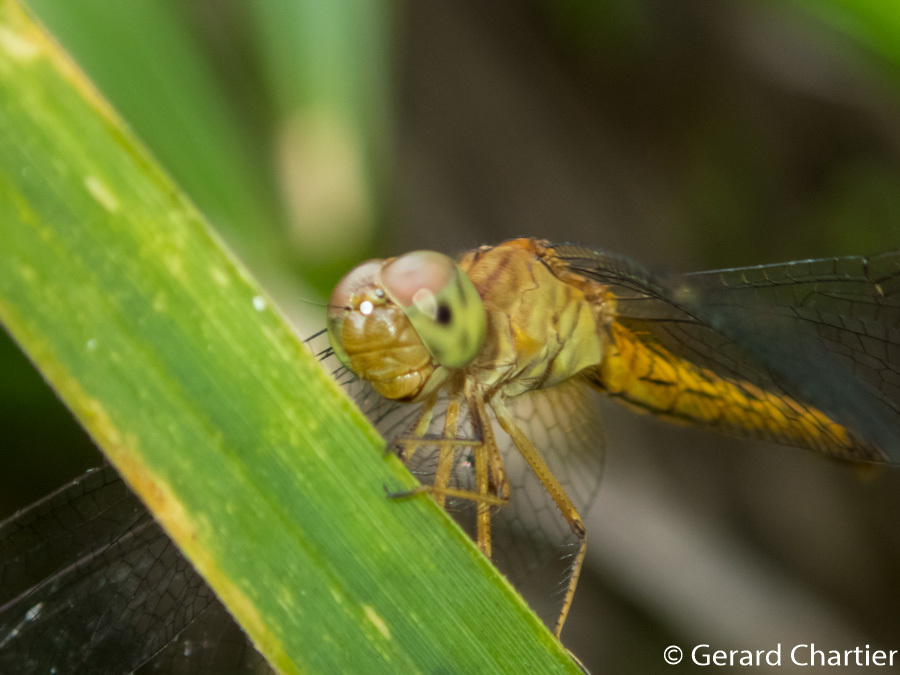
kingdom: Animalia
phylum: Arthropoda
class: Insecta
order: Odonata
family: Libellulidae
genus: Neurothemis
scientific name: Neurothemis fluctuans
